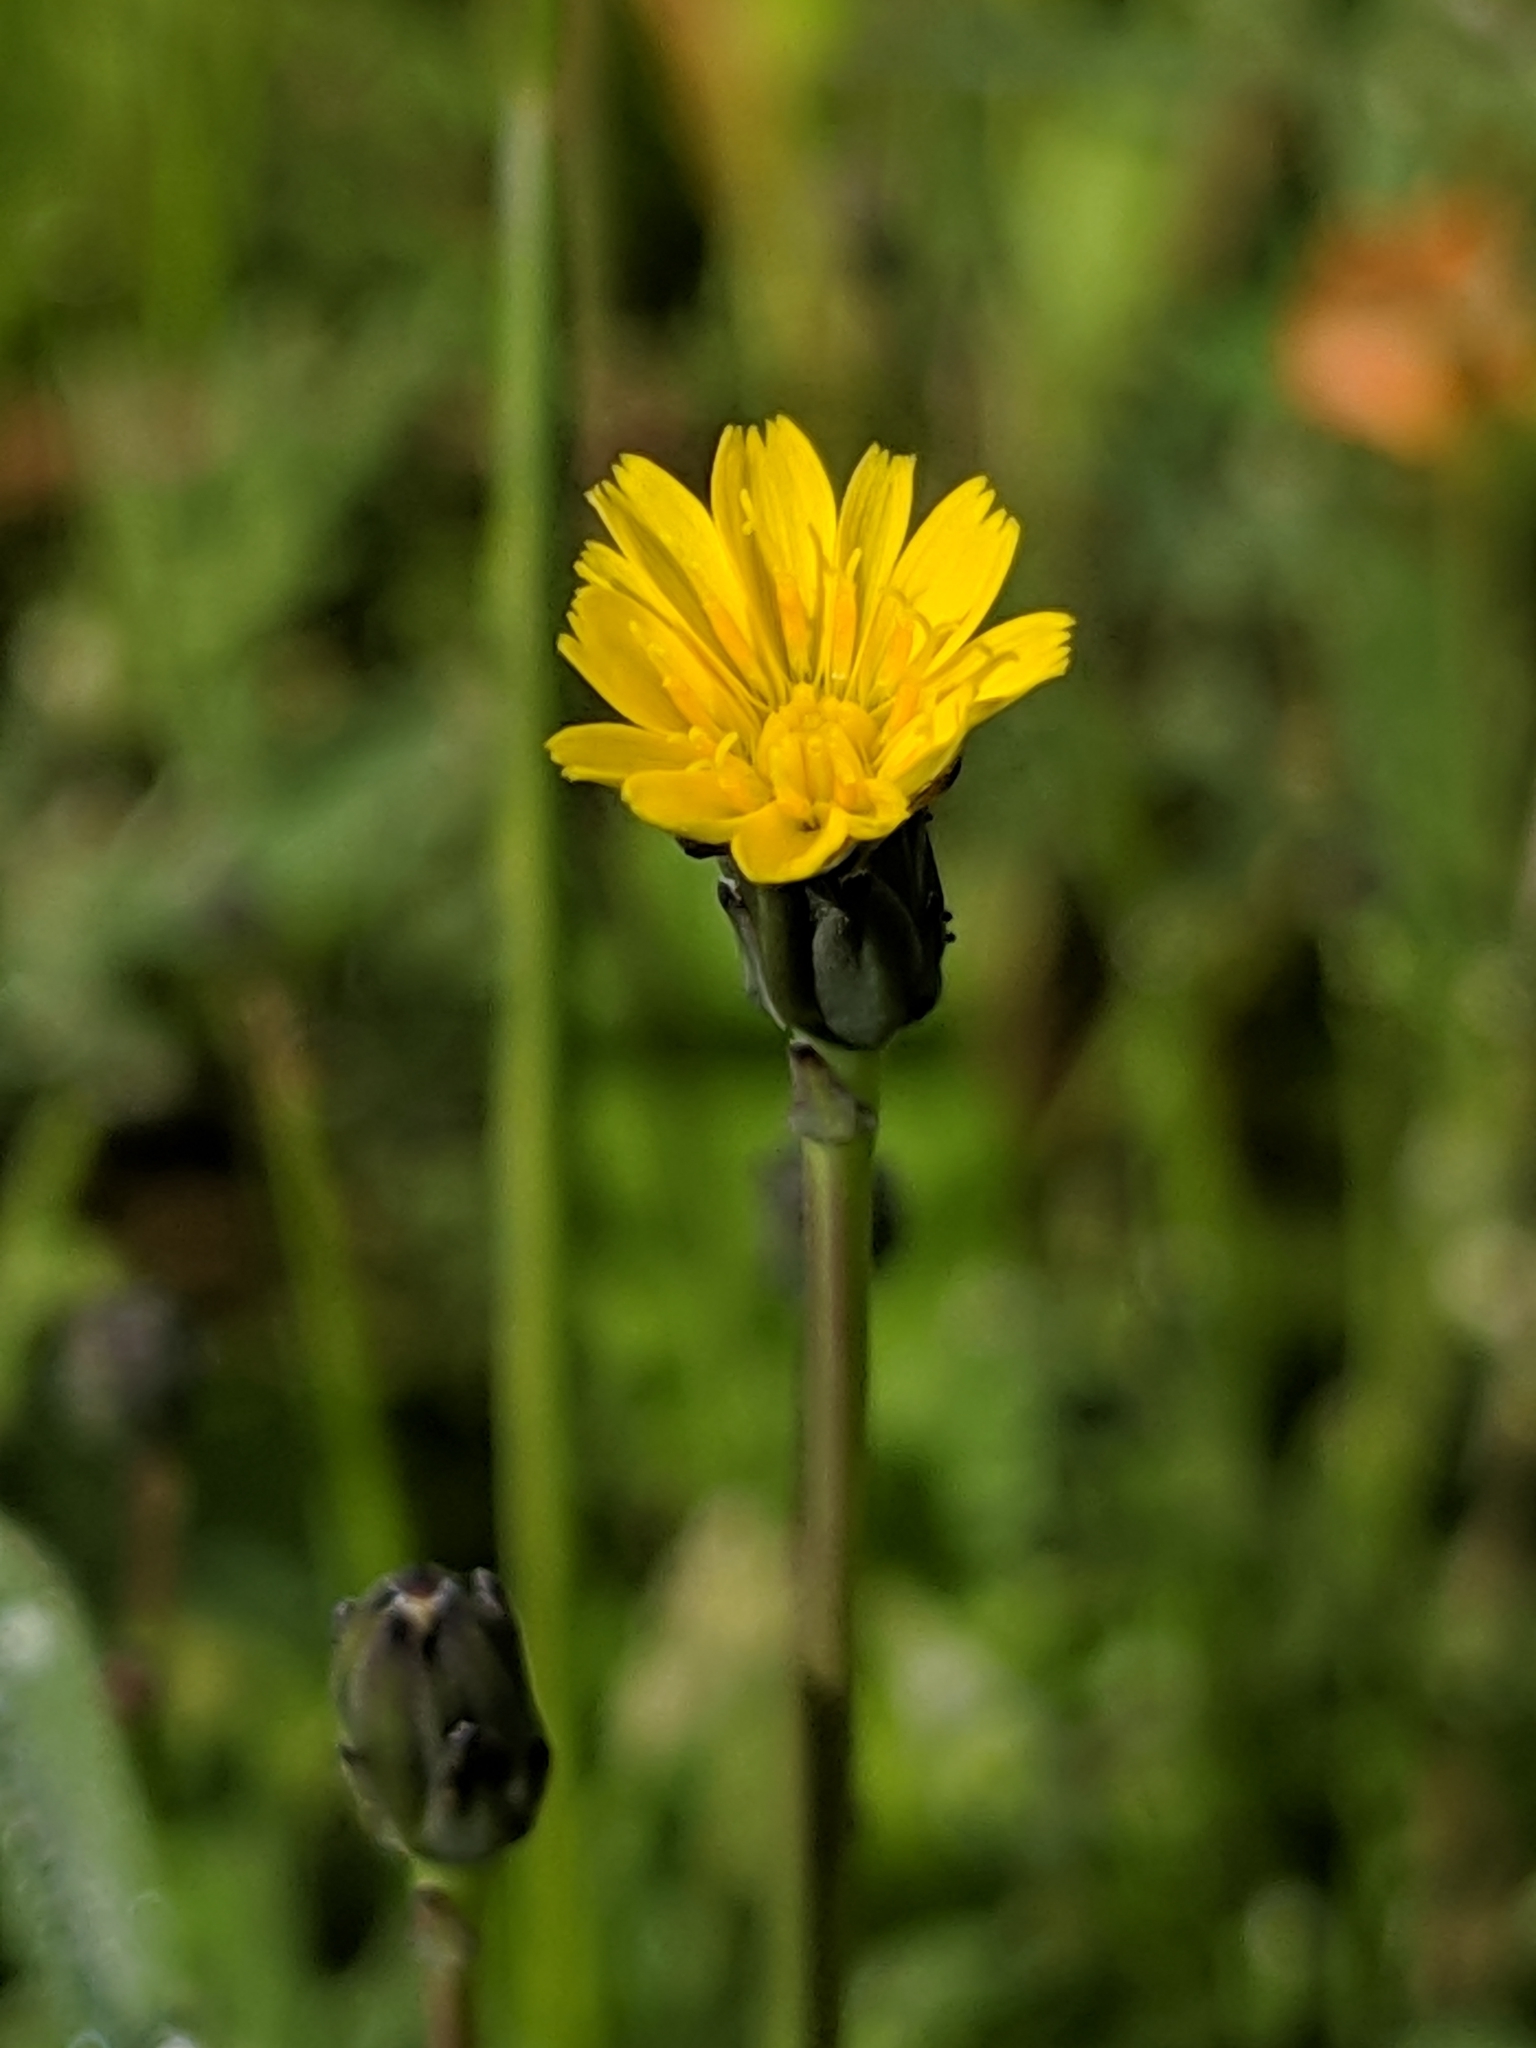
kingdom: Plantae
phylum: Tracheophyta
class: Magnoliopsida
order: Asterales
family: Asteraceae
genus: Hypochaeris
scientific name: Hypochaeris glabra
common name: Smooth catsear
